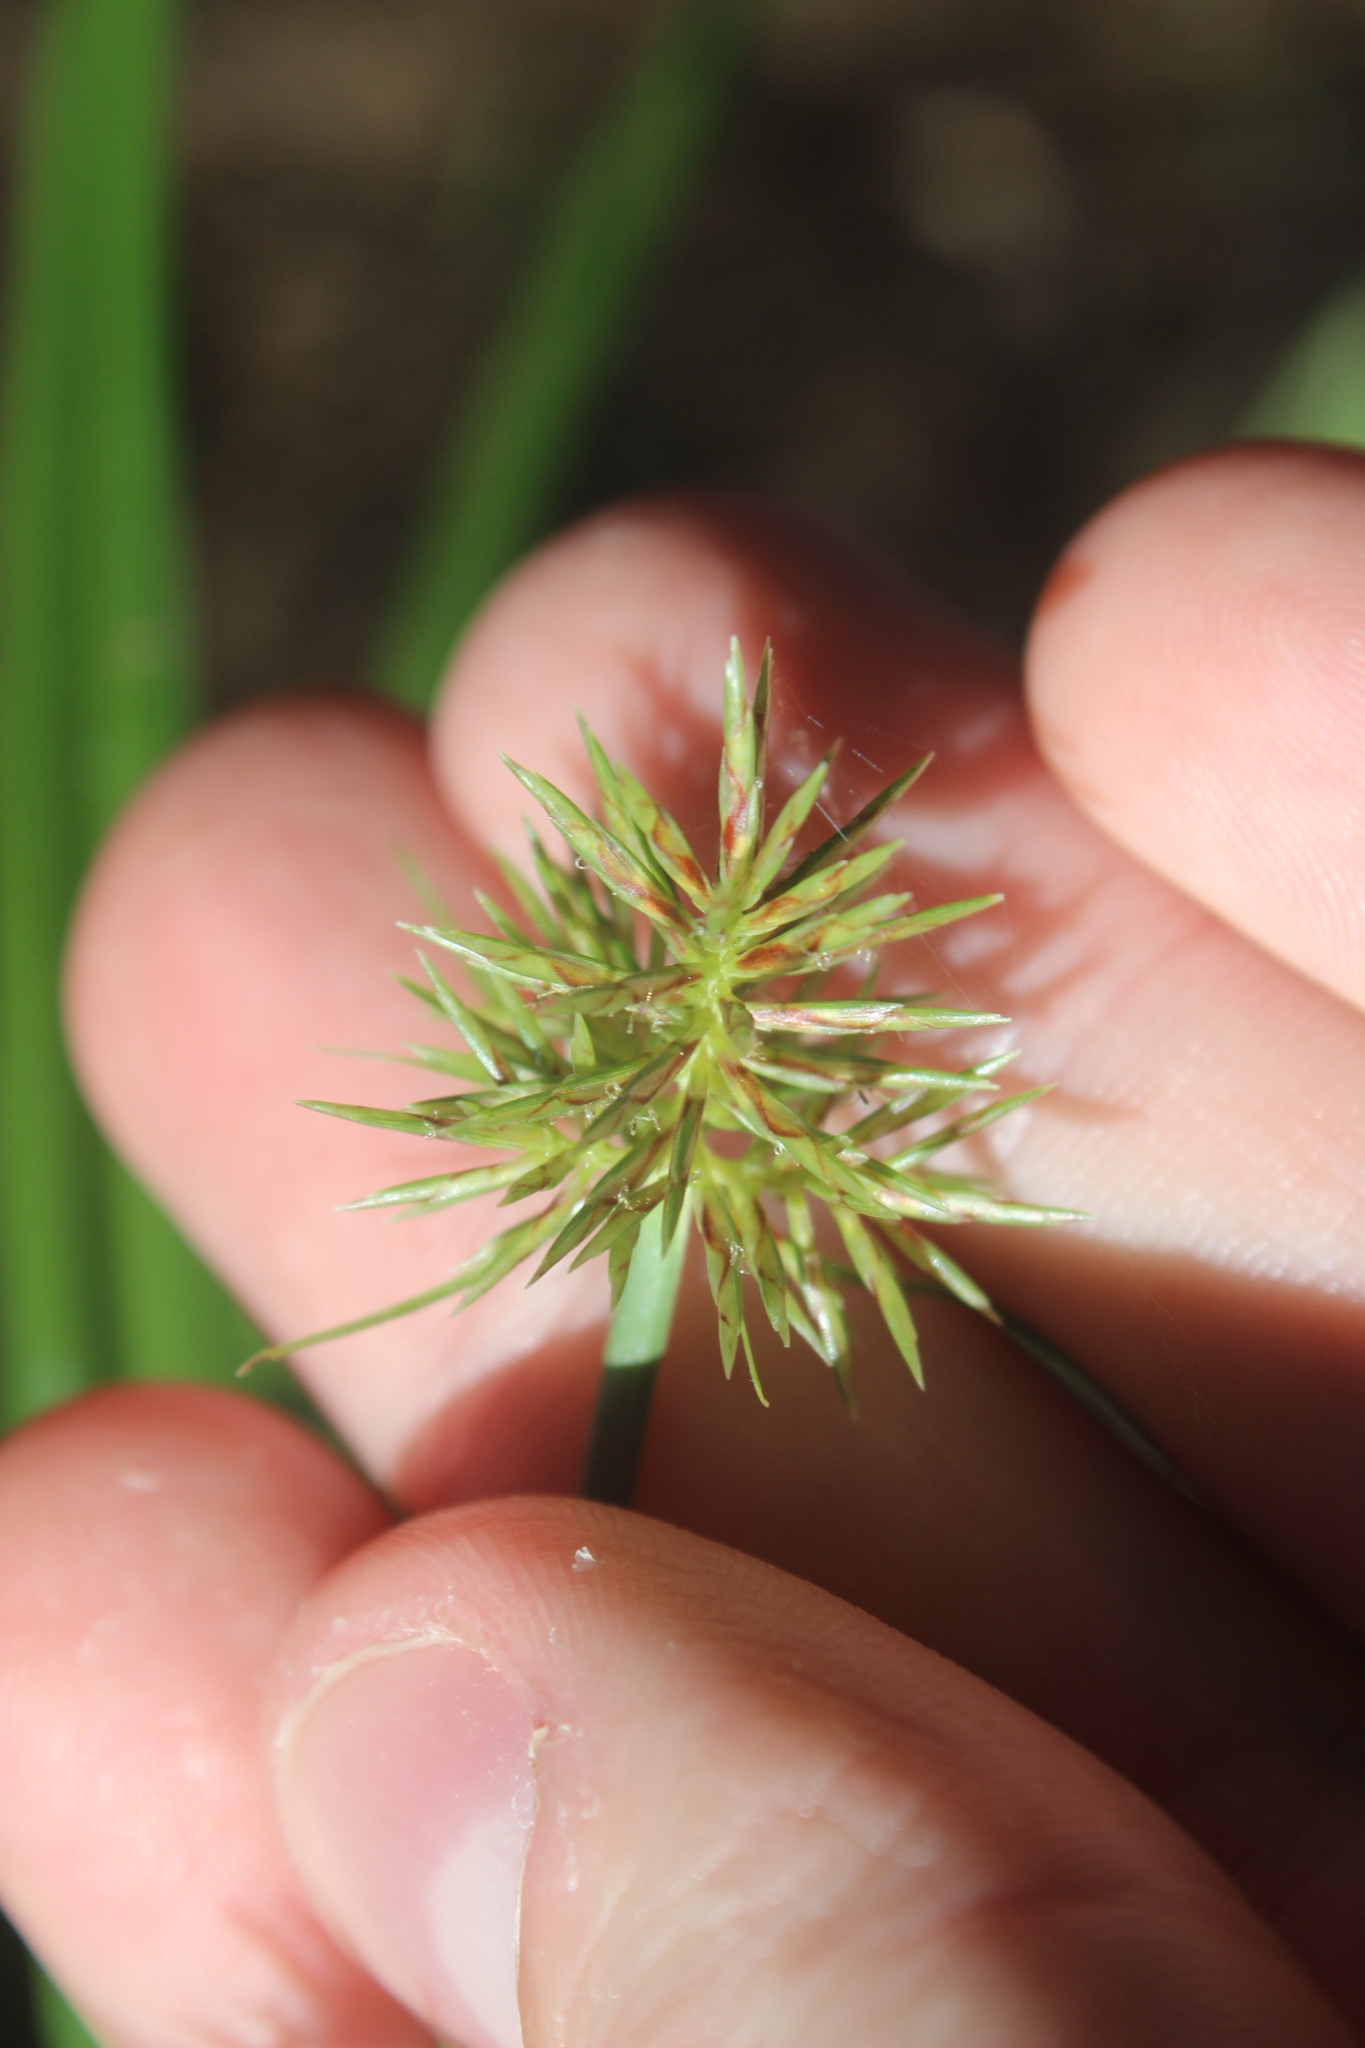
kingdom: Plantae
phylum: Tracheophyta
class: Liliopsida
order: Poales
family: Cyperaceae
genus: Cyperus
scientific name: Cyperus congestus
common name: Dense flat sedge
